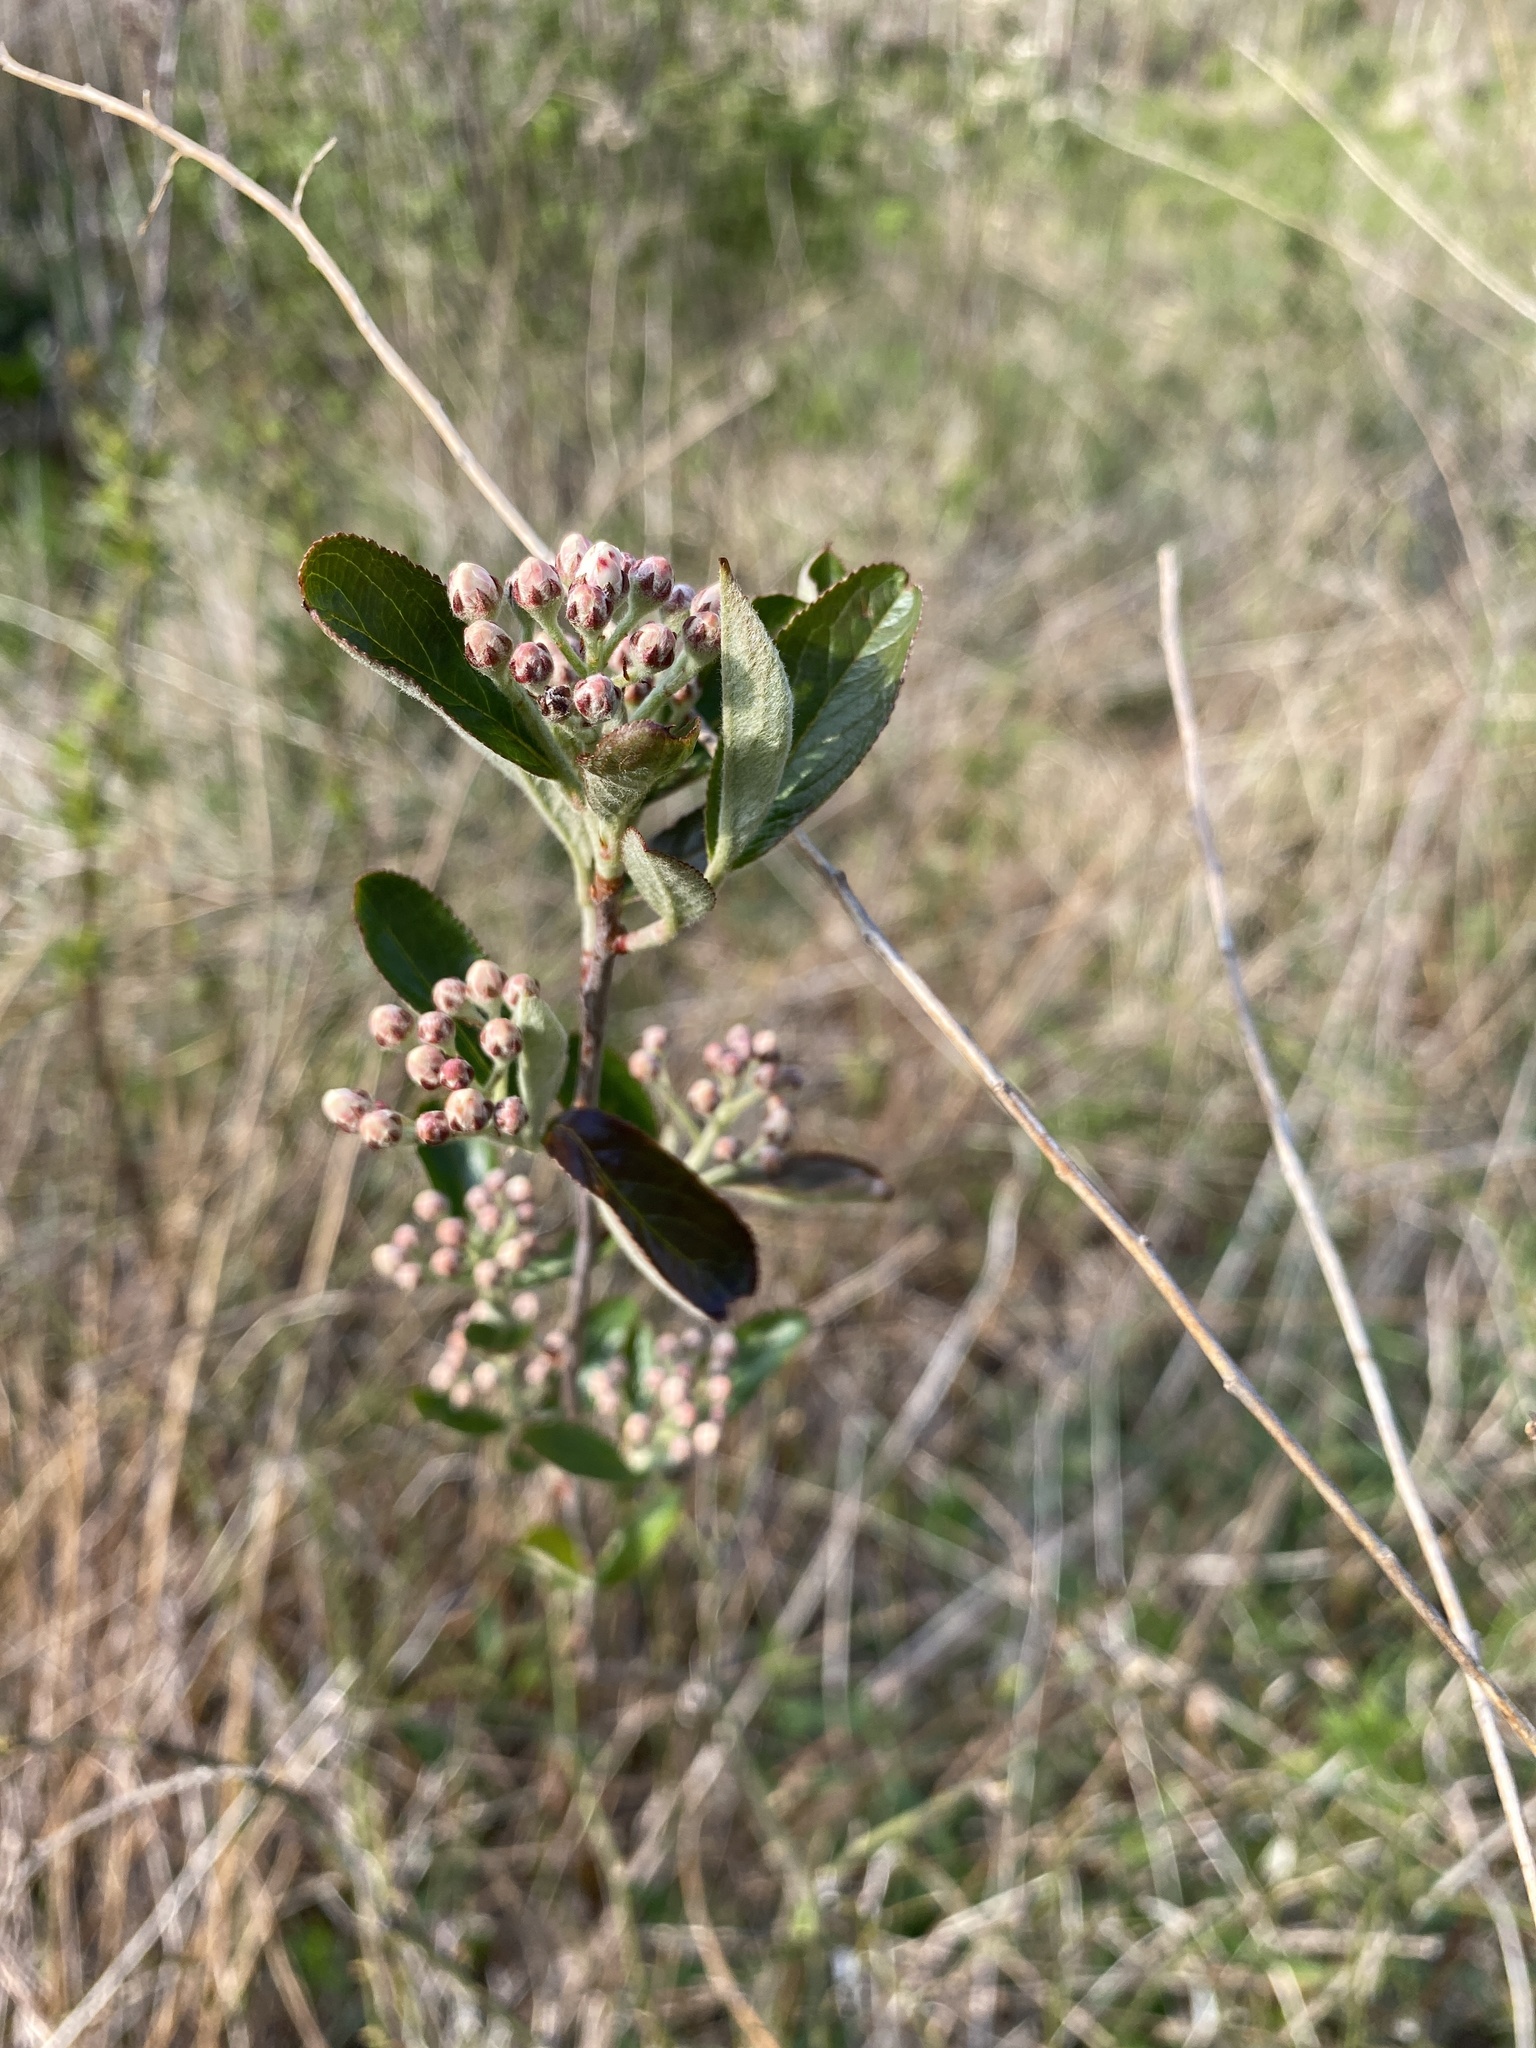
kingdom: Plantae
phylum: Tracheophyta
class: Magnoliopsida
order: Rosales
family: Rosaceae
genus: Aronia
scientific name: Aronia arbutifolia
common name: Red chokeberry
